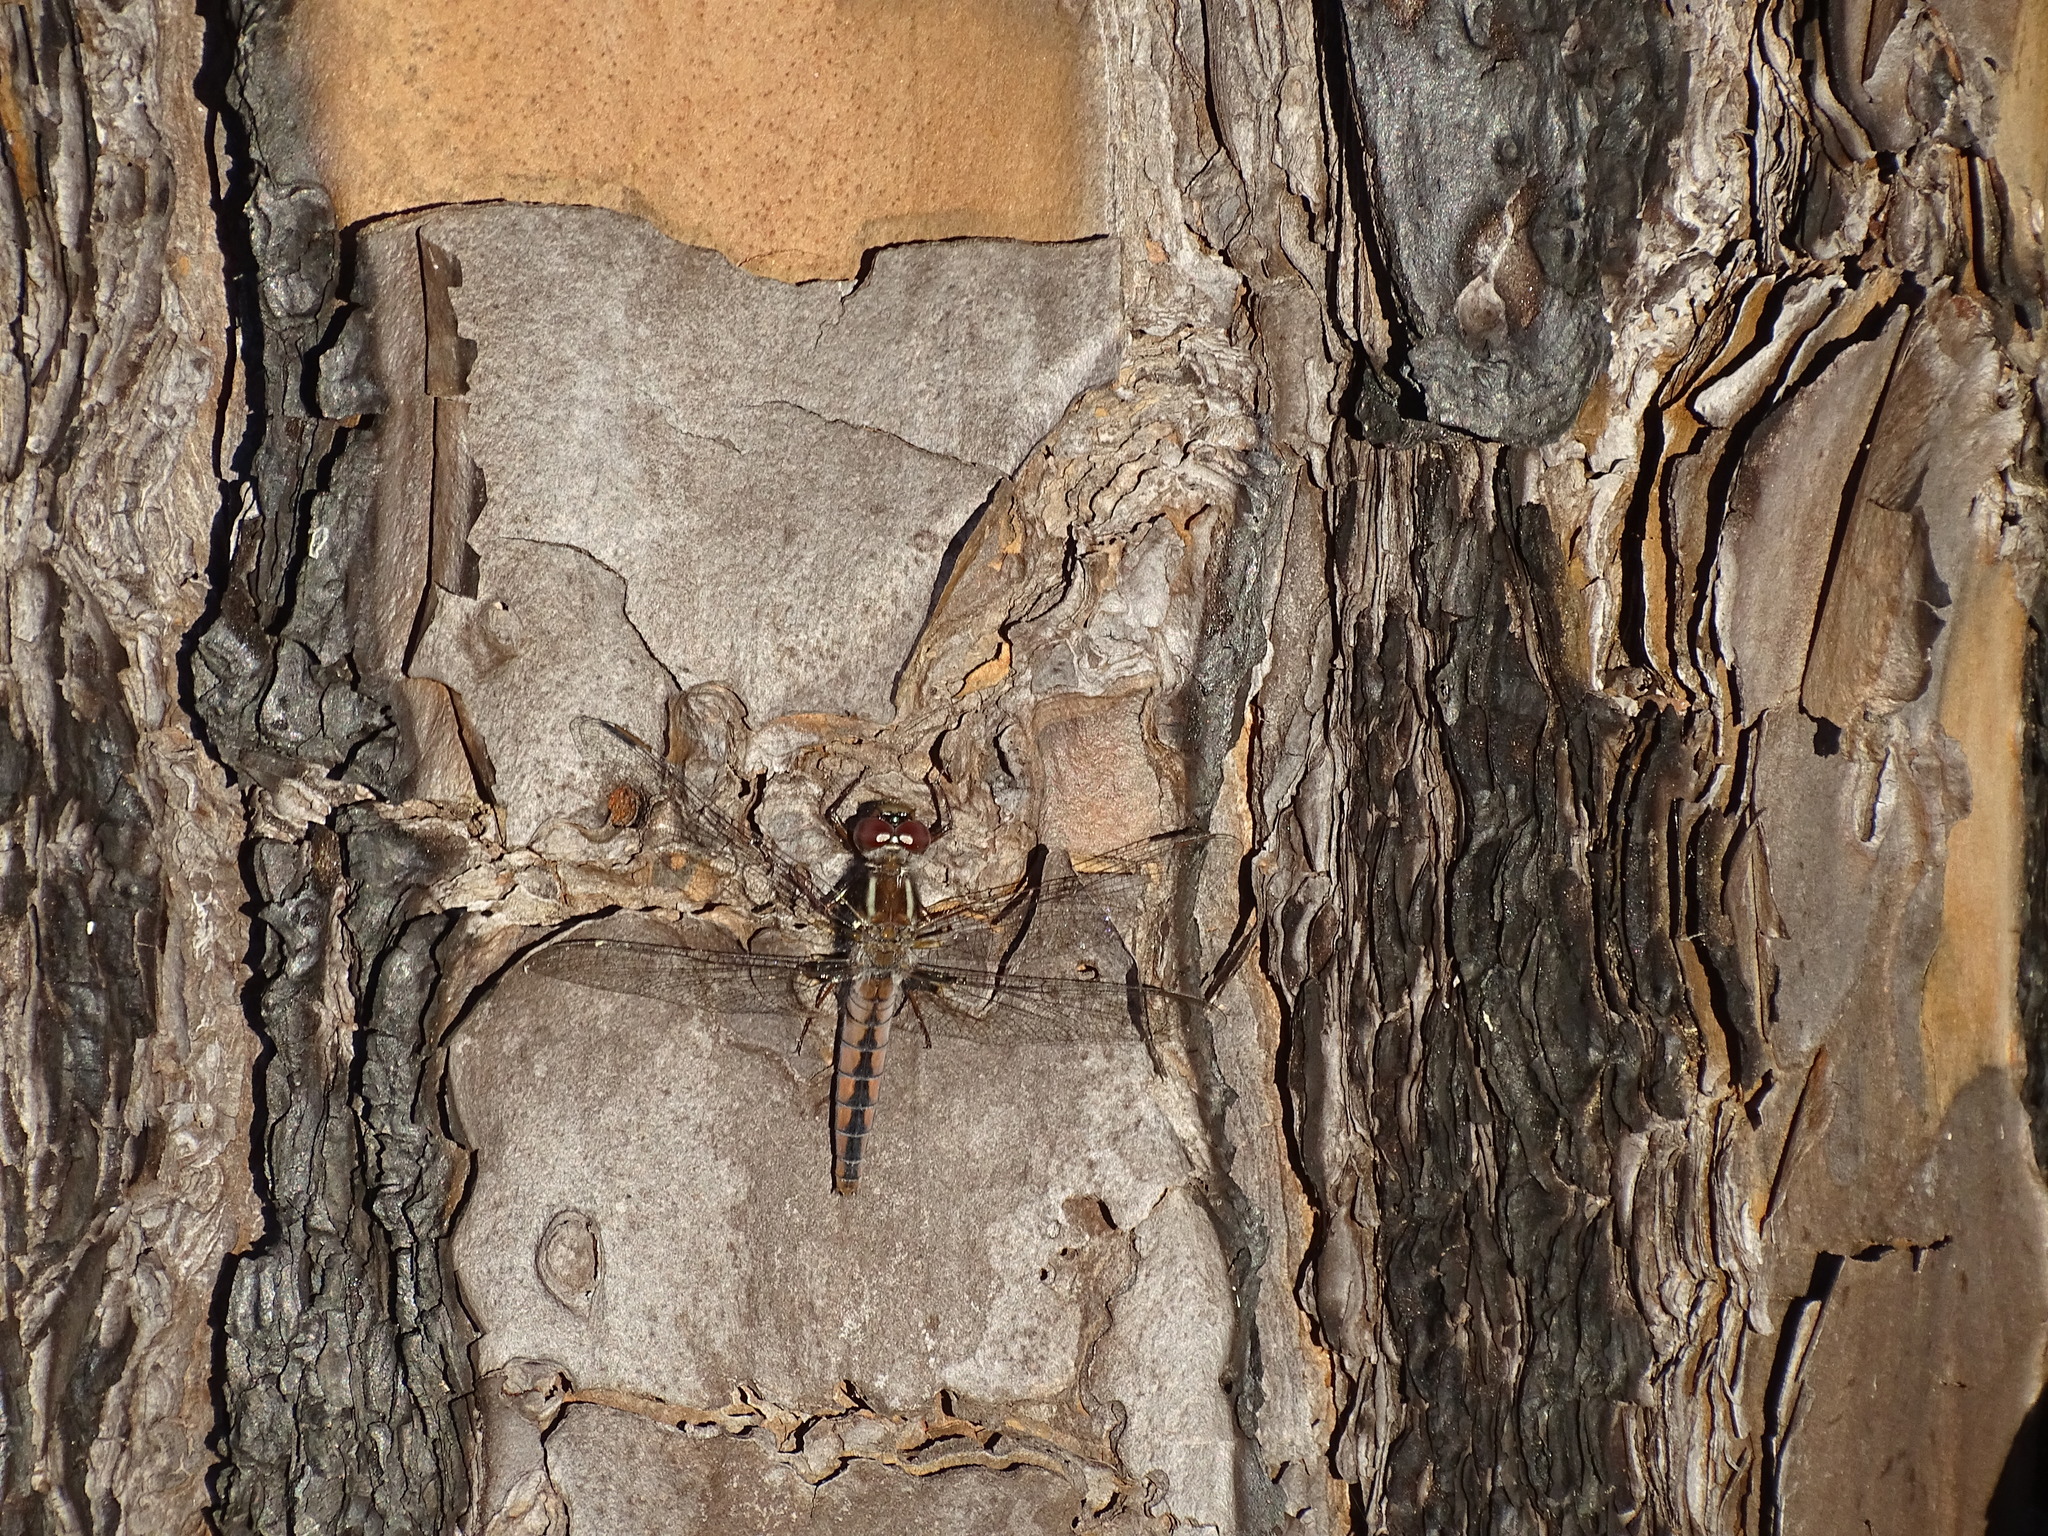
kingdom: Animalia
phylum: Arthropoda
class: Insecta
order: Odonata
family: Libellulidae
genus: Ladona
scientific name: Ladona deplanata
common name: Blue corporal
